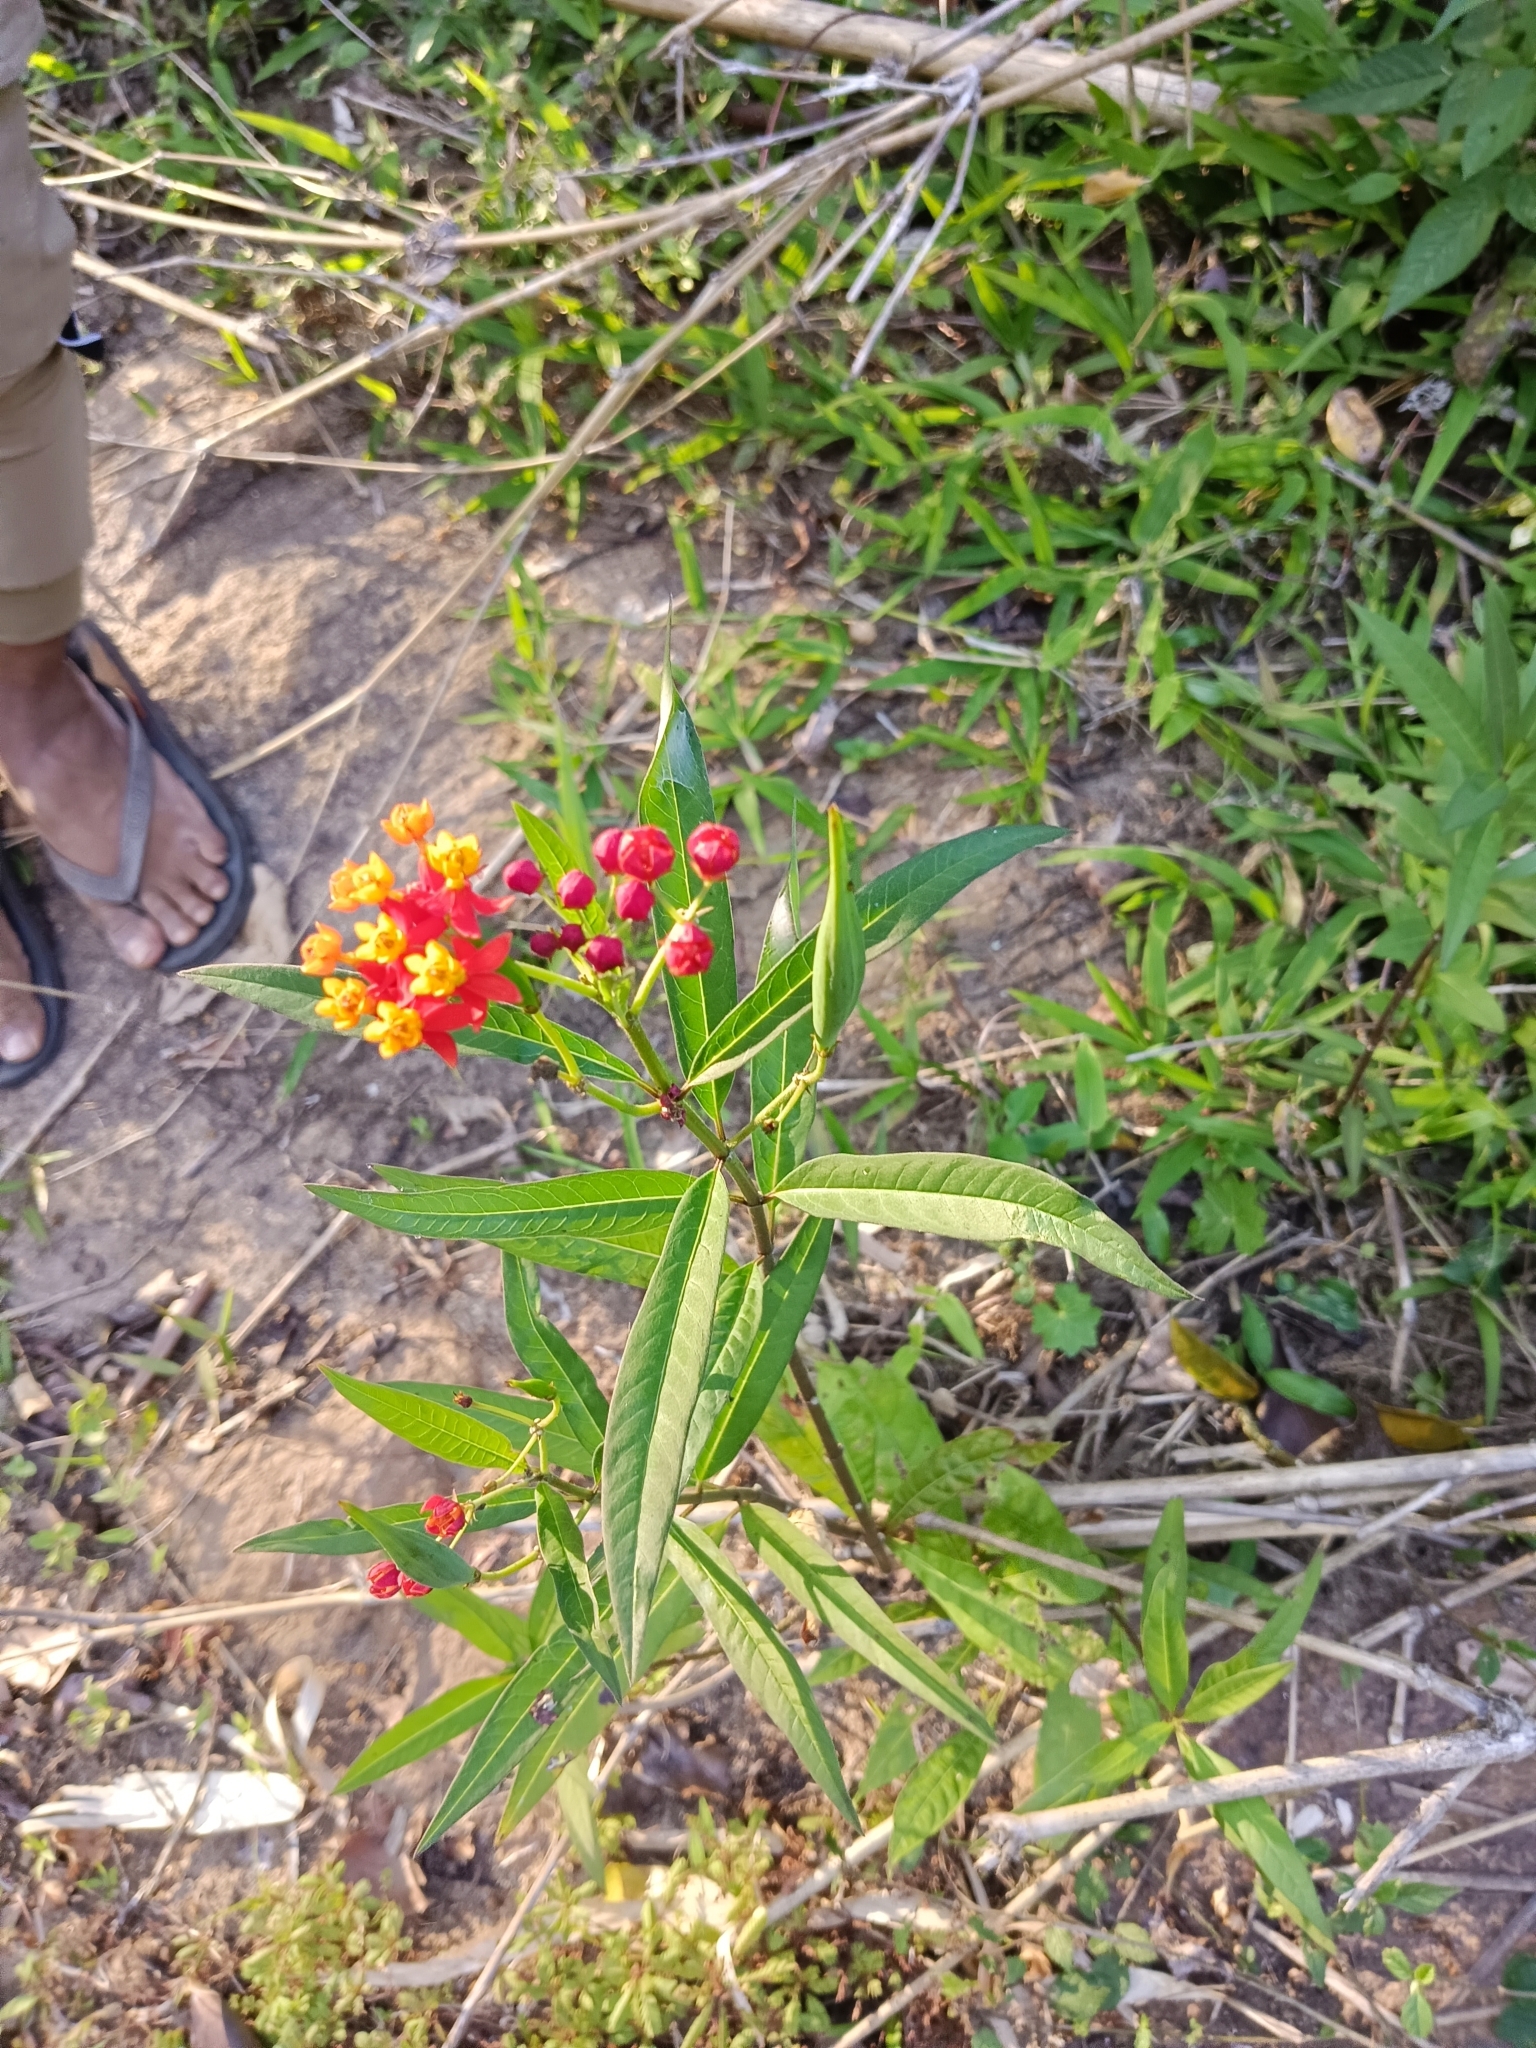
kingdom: Plantae
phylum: Tracheophyta
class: Magnoliopsida
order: Gentianales
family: Apocynaceae
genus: Asclepias
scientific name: Asclepias curassavica
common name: Bloodflower
